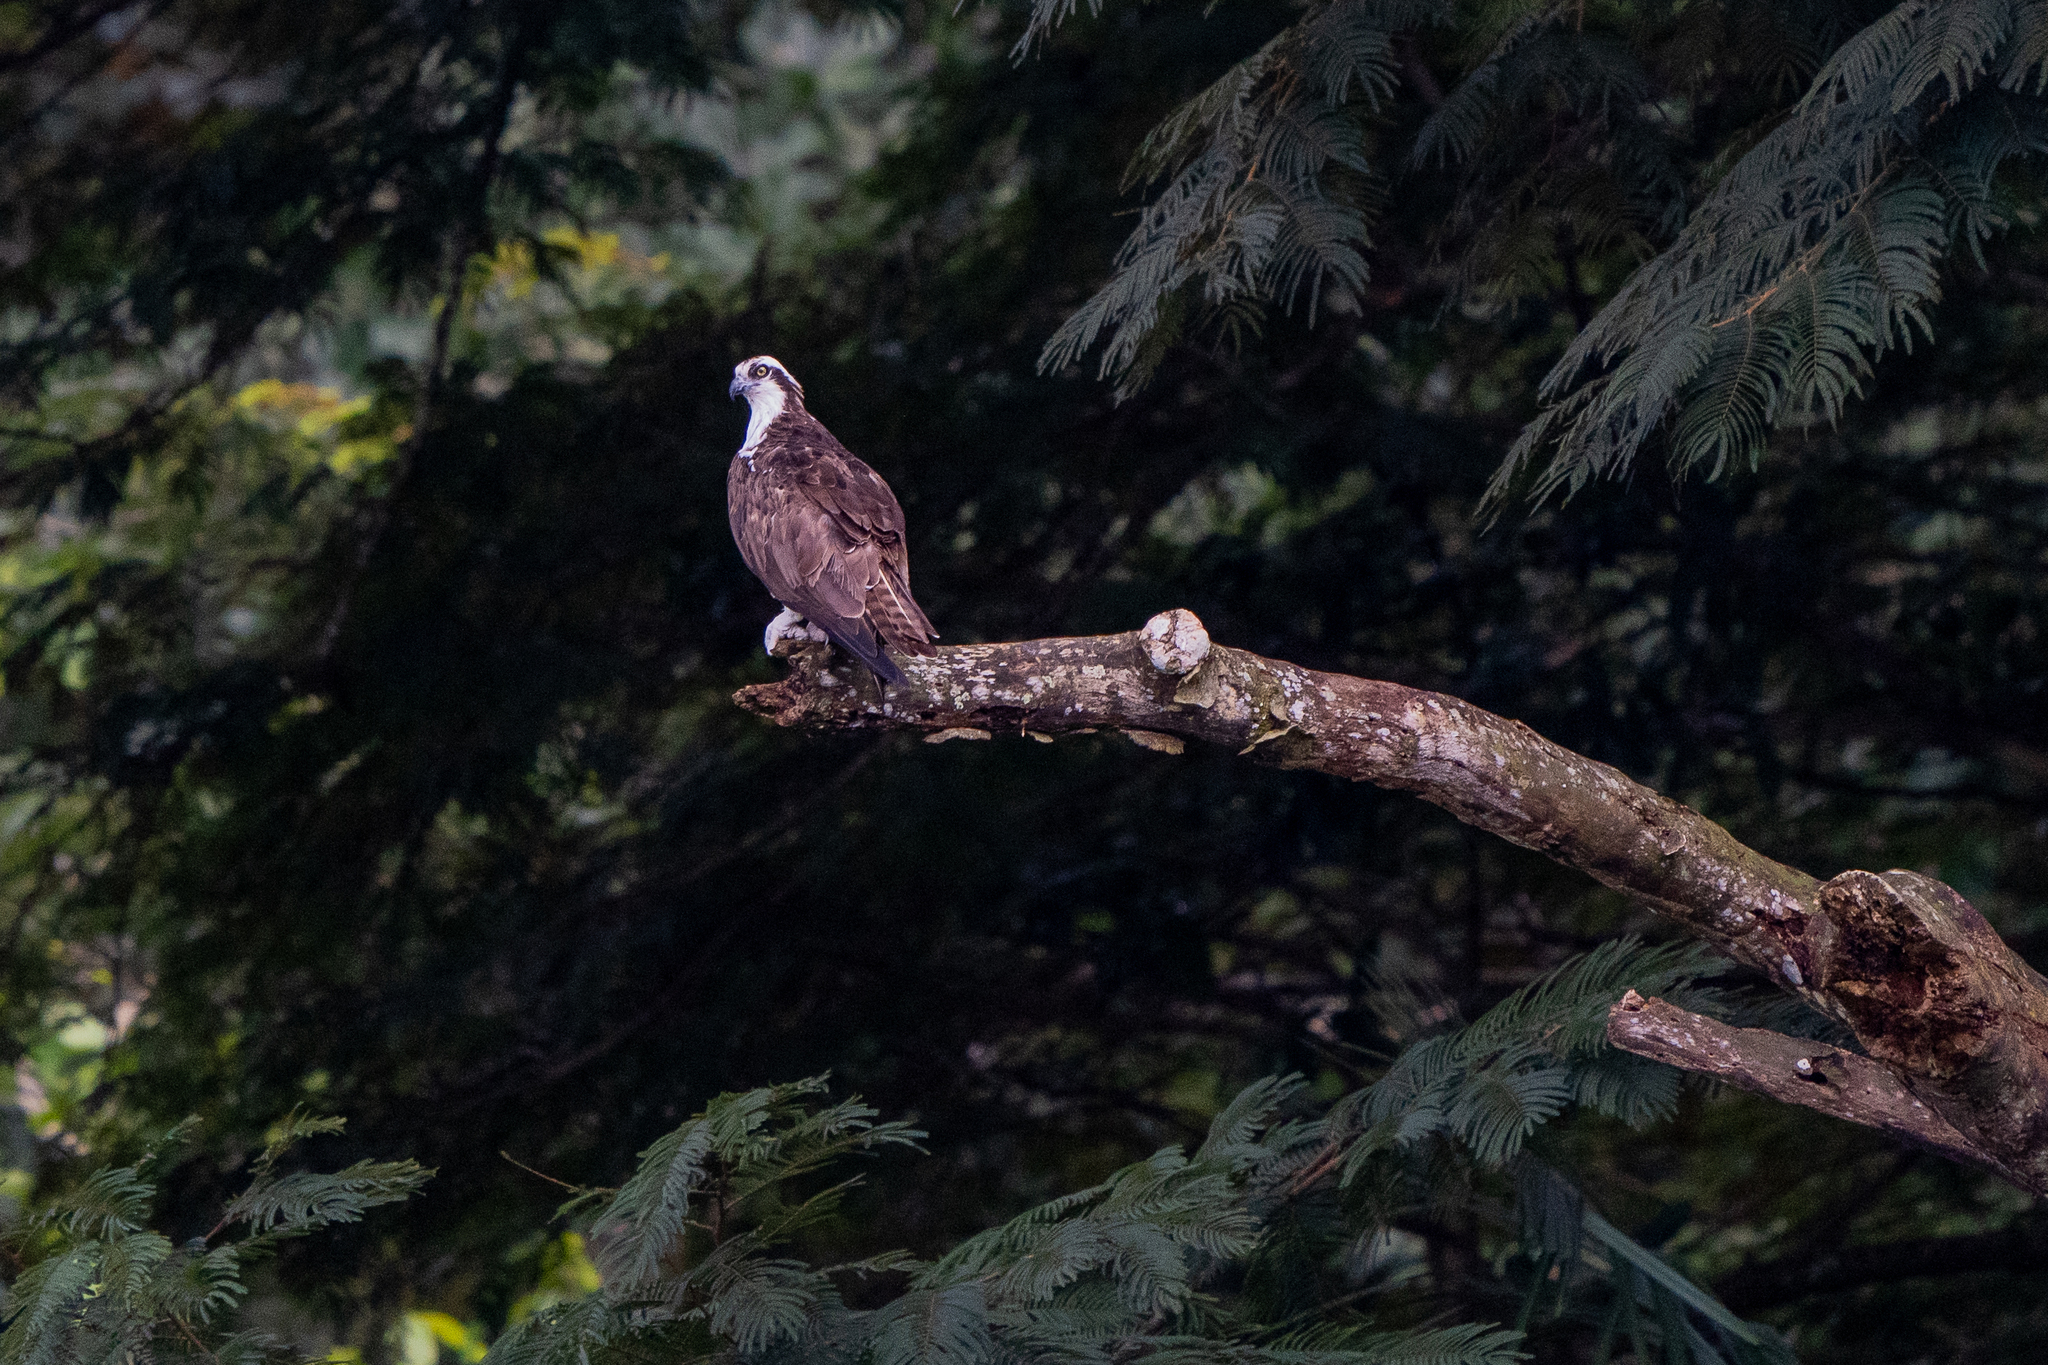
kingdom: Animalia
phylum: Chordata
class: Aves
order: Accipitriformes
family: Pandionidae
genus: Pandion
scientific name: Pandion haliaetus
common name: Osprey
